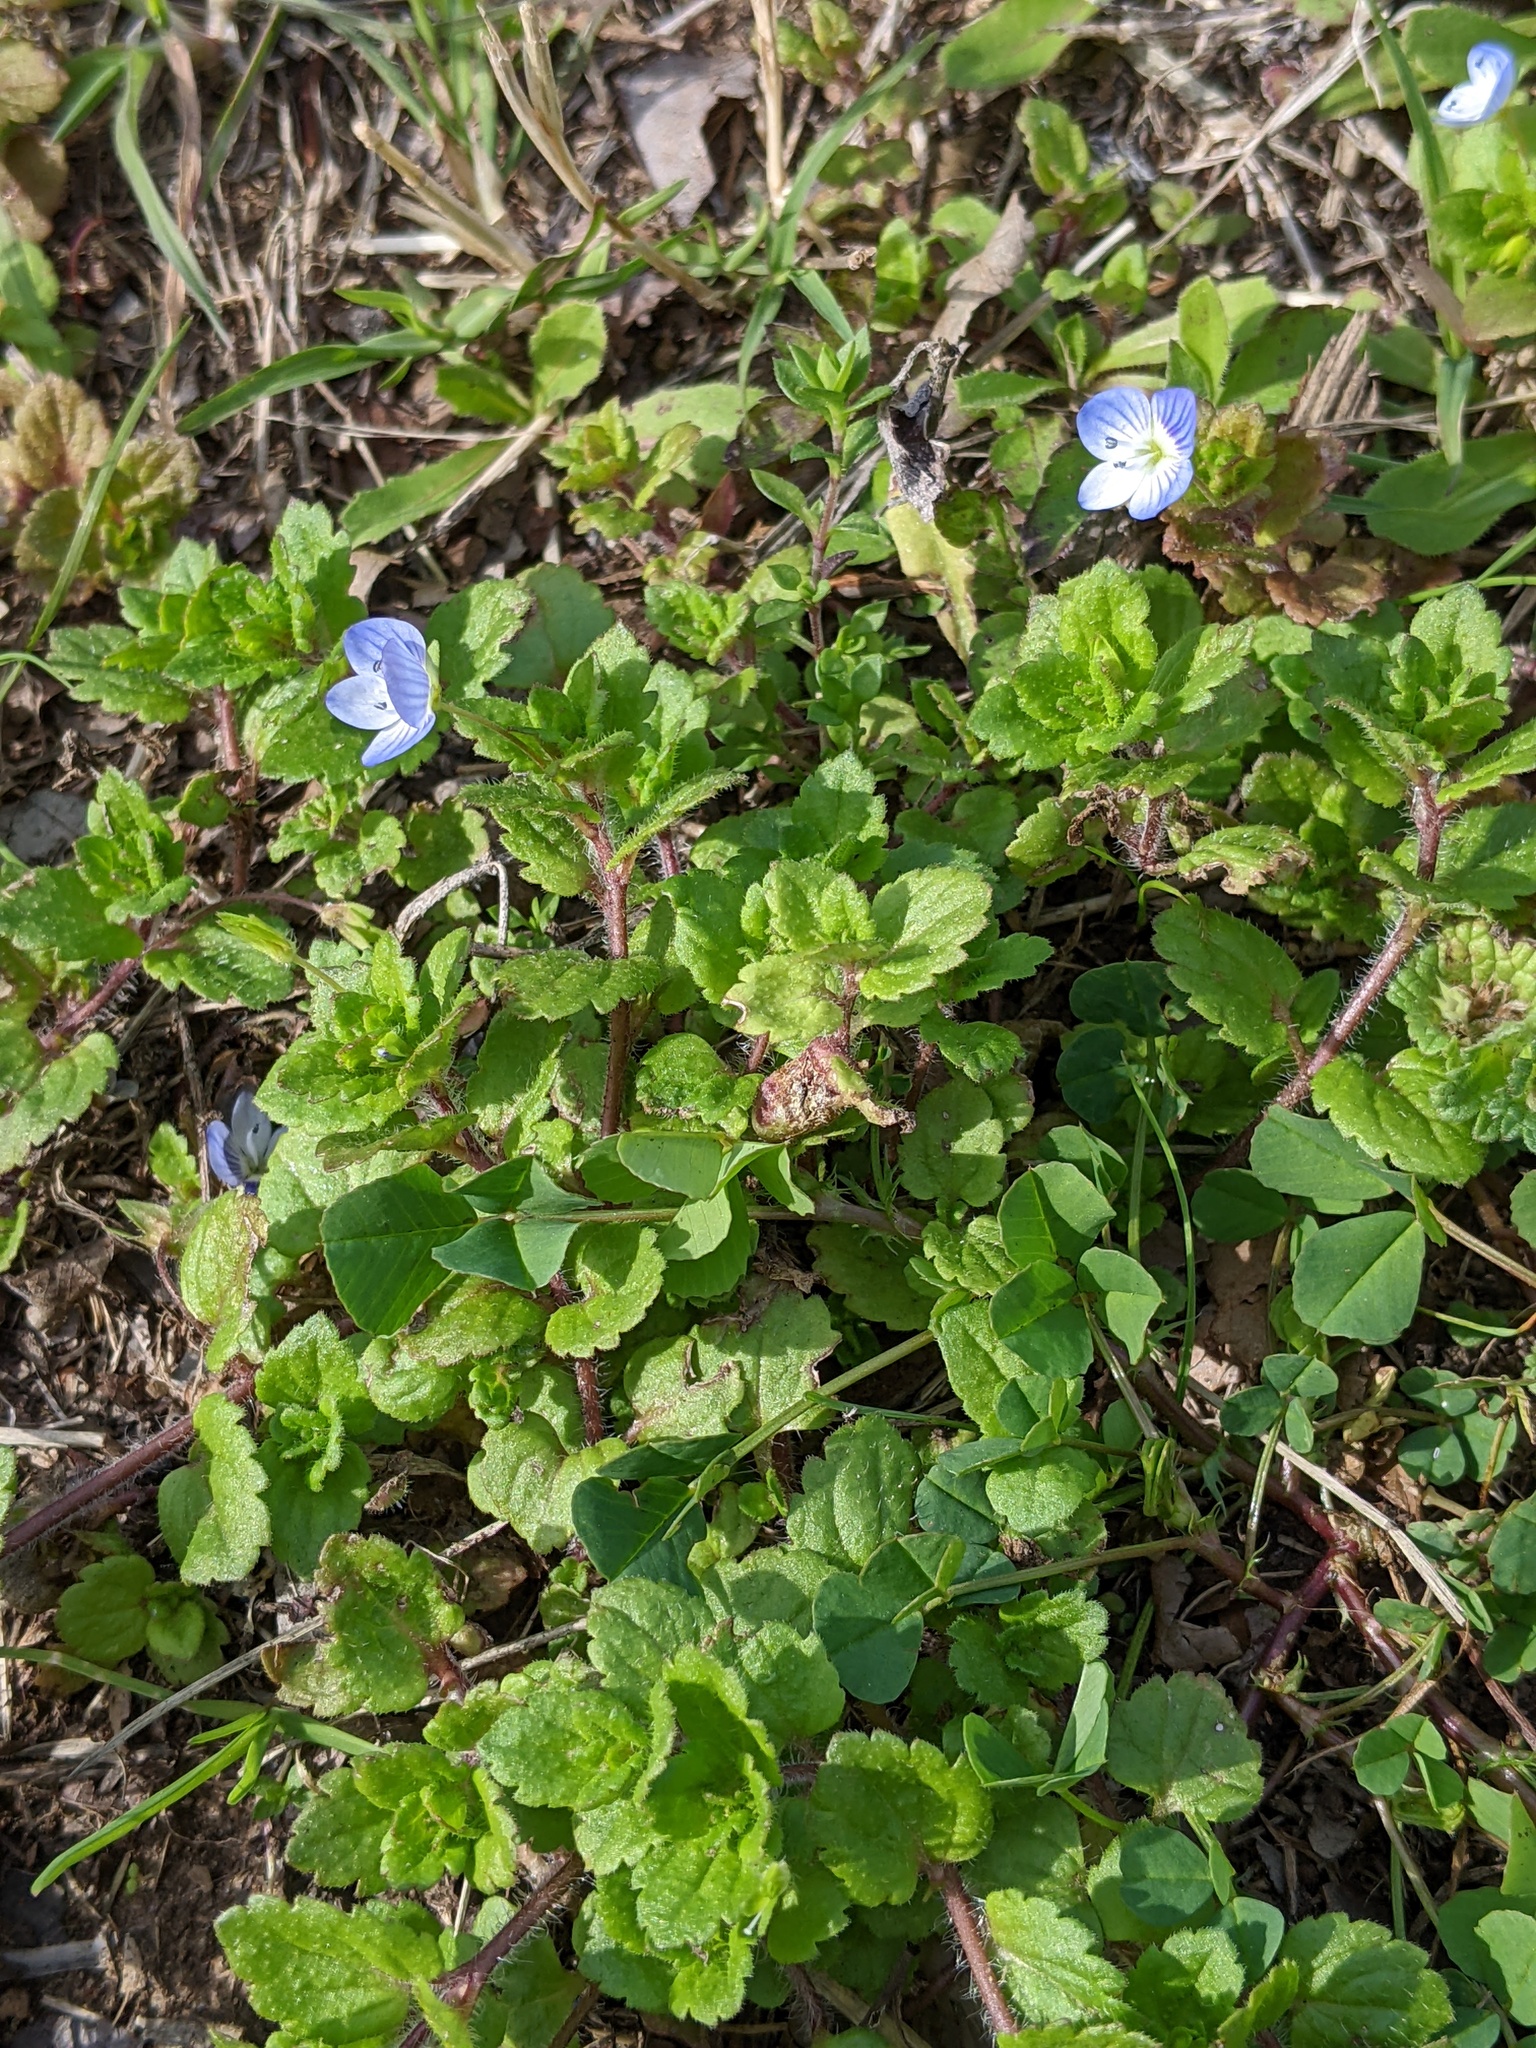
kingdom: Plantae
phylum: Tracheophyta
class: Magnoliopsida
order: Lamiales
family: Plantaginaceae
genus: Veronica
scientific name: Veronica persica
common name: Common field-speedwell
